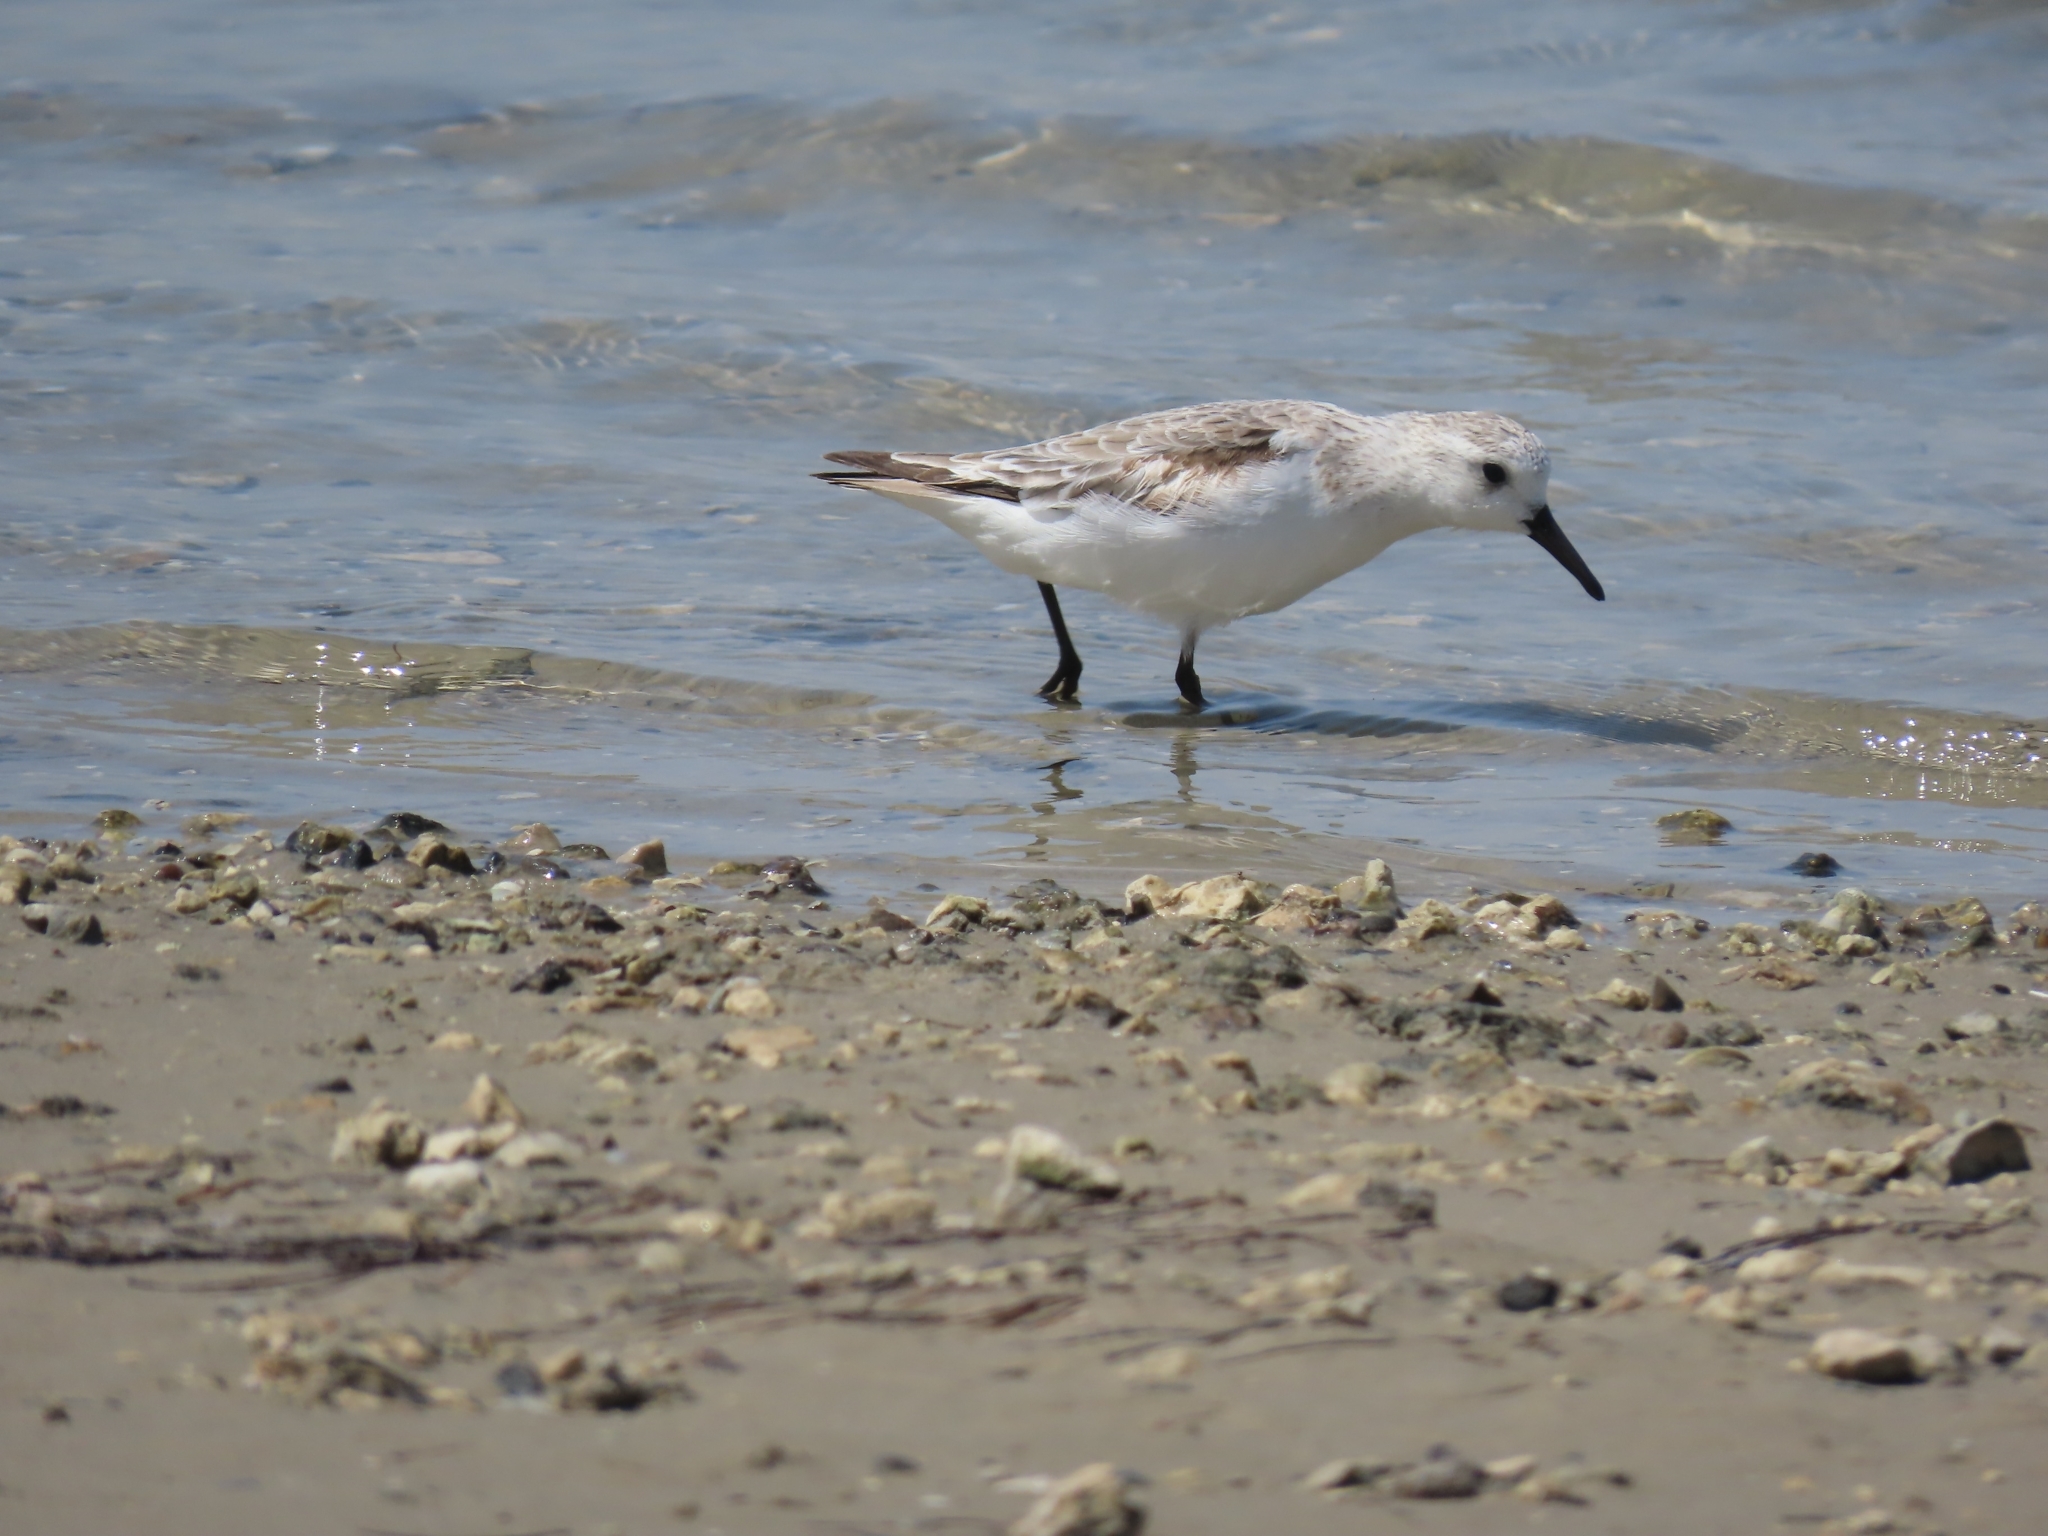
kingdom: Animalia
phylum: Chordata
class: Aves
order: Charadriiformes
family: Scolopacidae
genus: Calidris
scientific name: Calidris alba
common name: Sanderling
